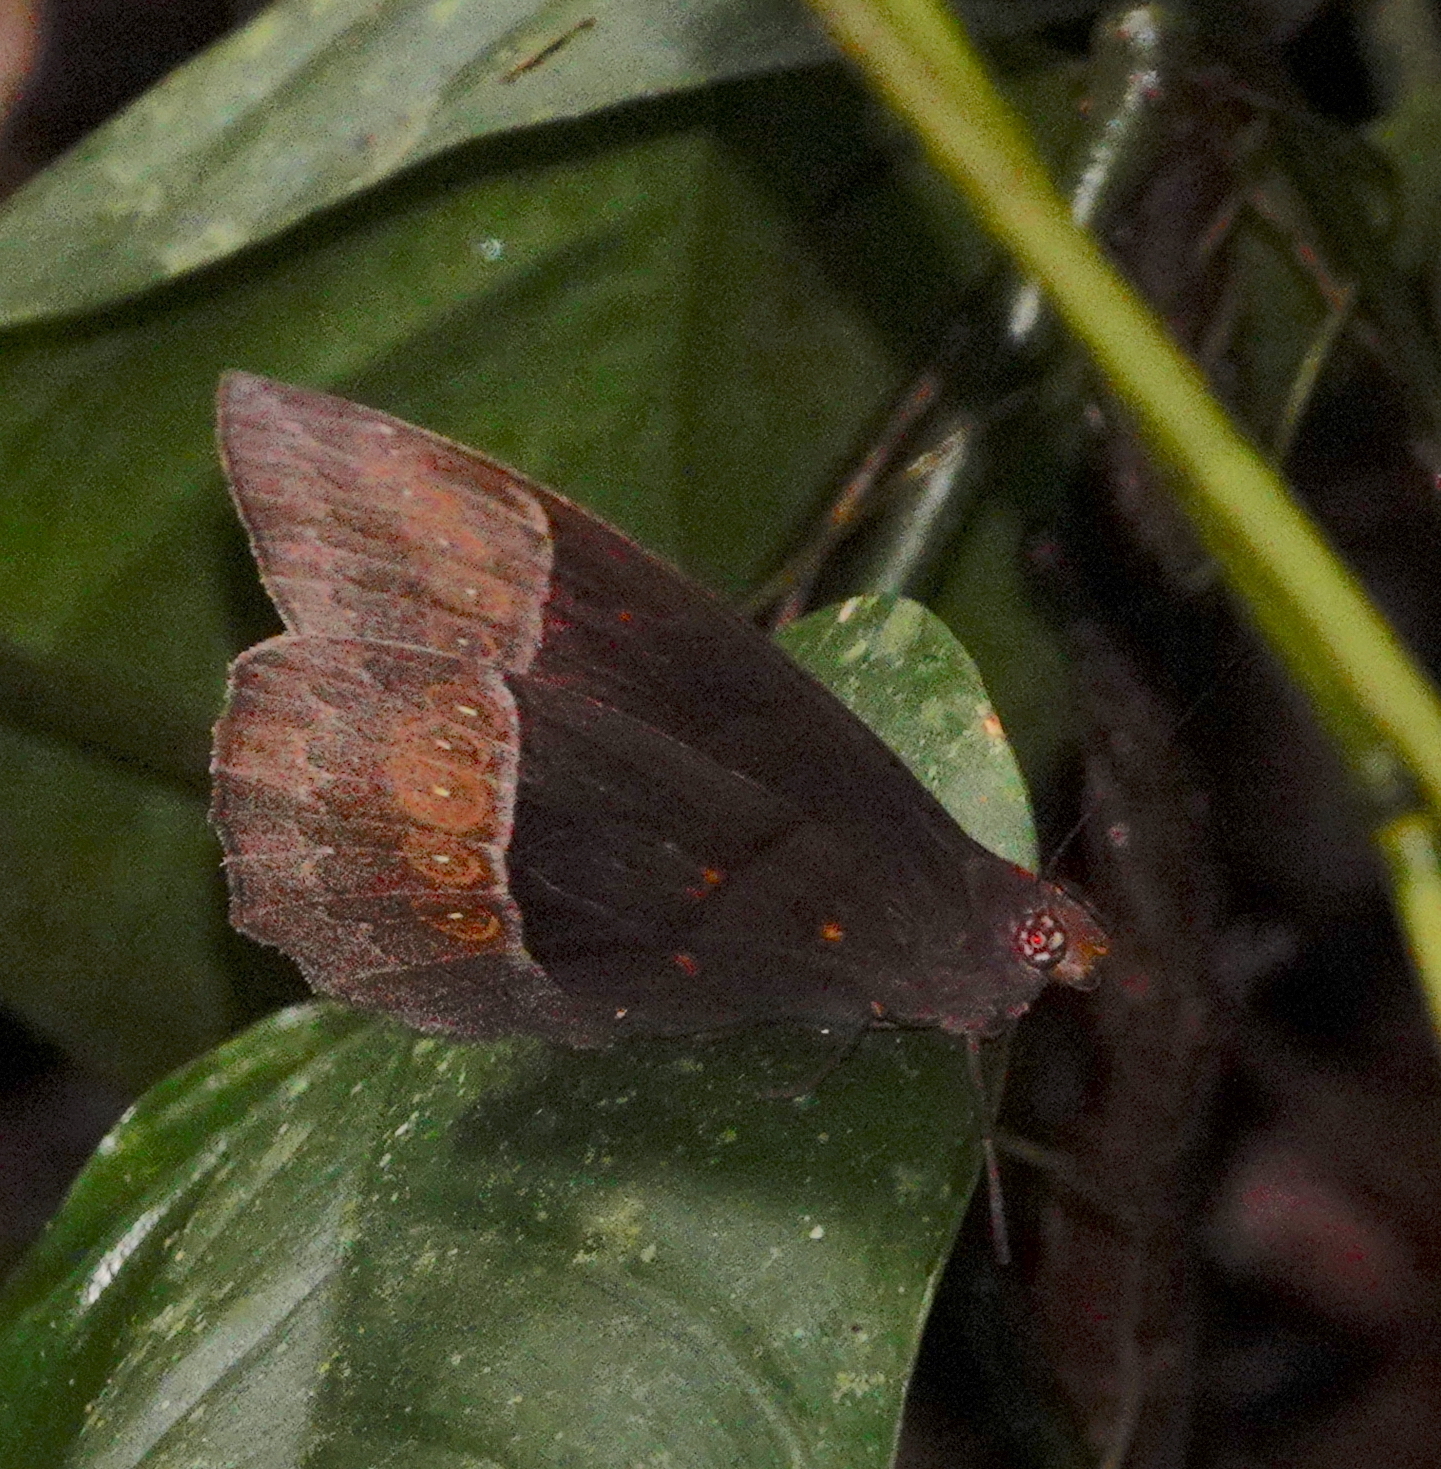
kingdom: Animalia
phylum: Arthropoda
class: Insecta
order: Lepidoptera
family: Nymphalidae
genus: Taygetis
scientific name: Taygetis oyapock
